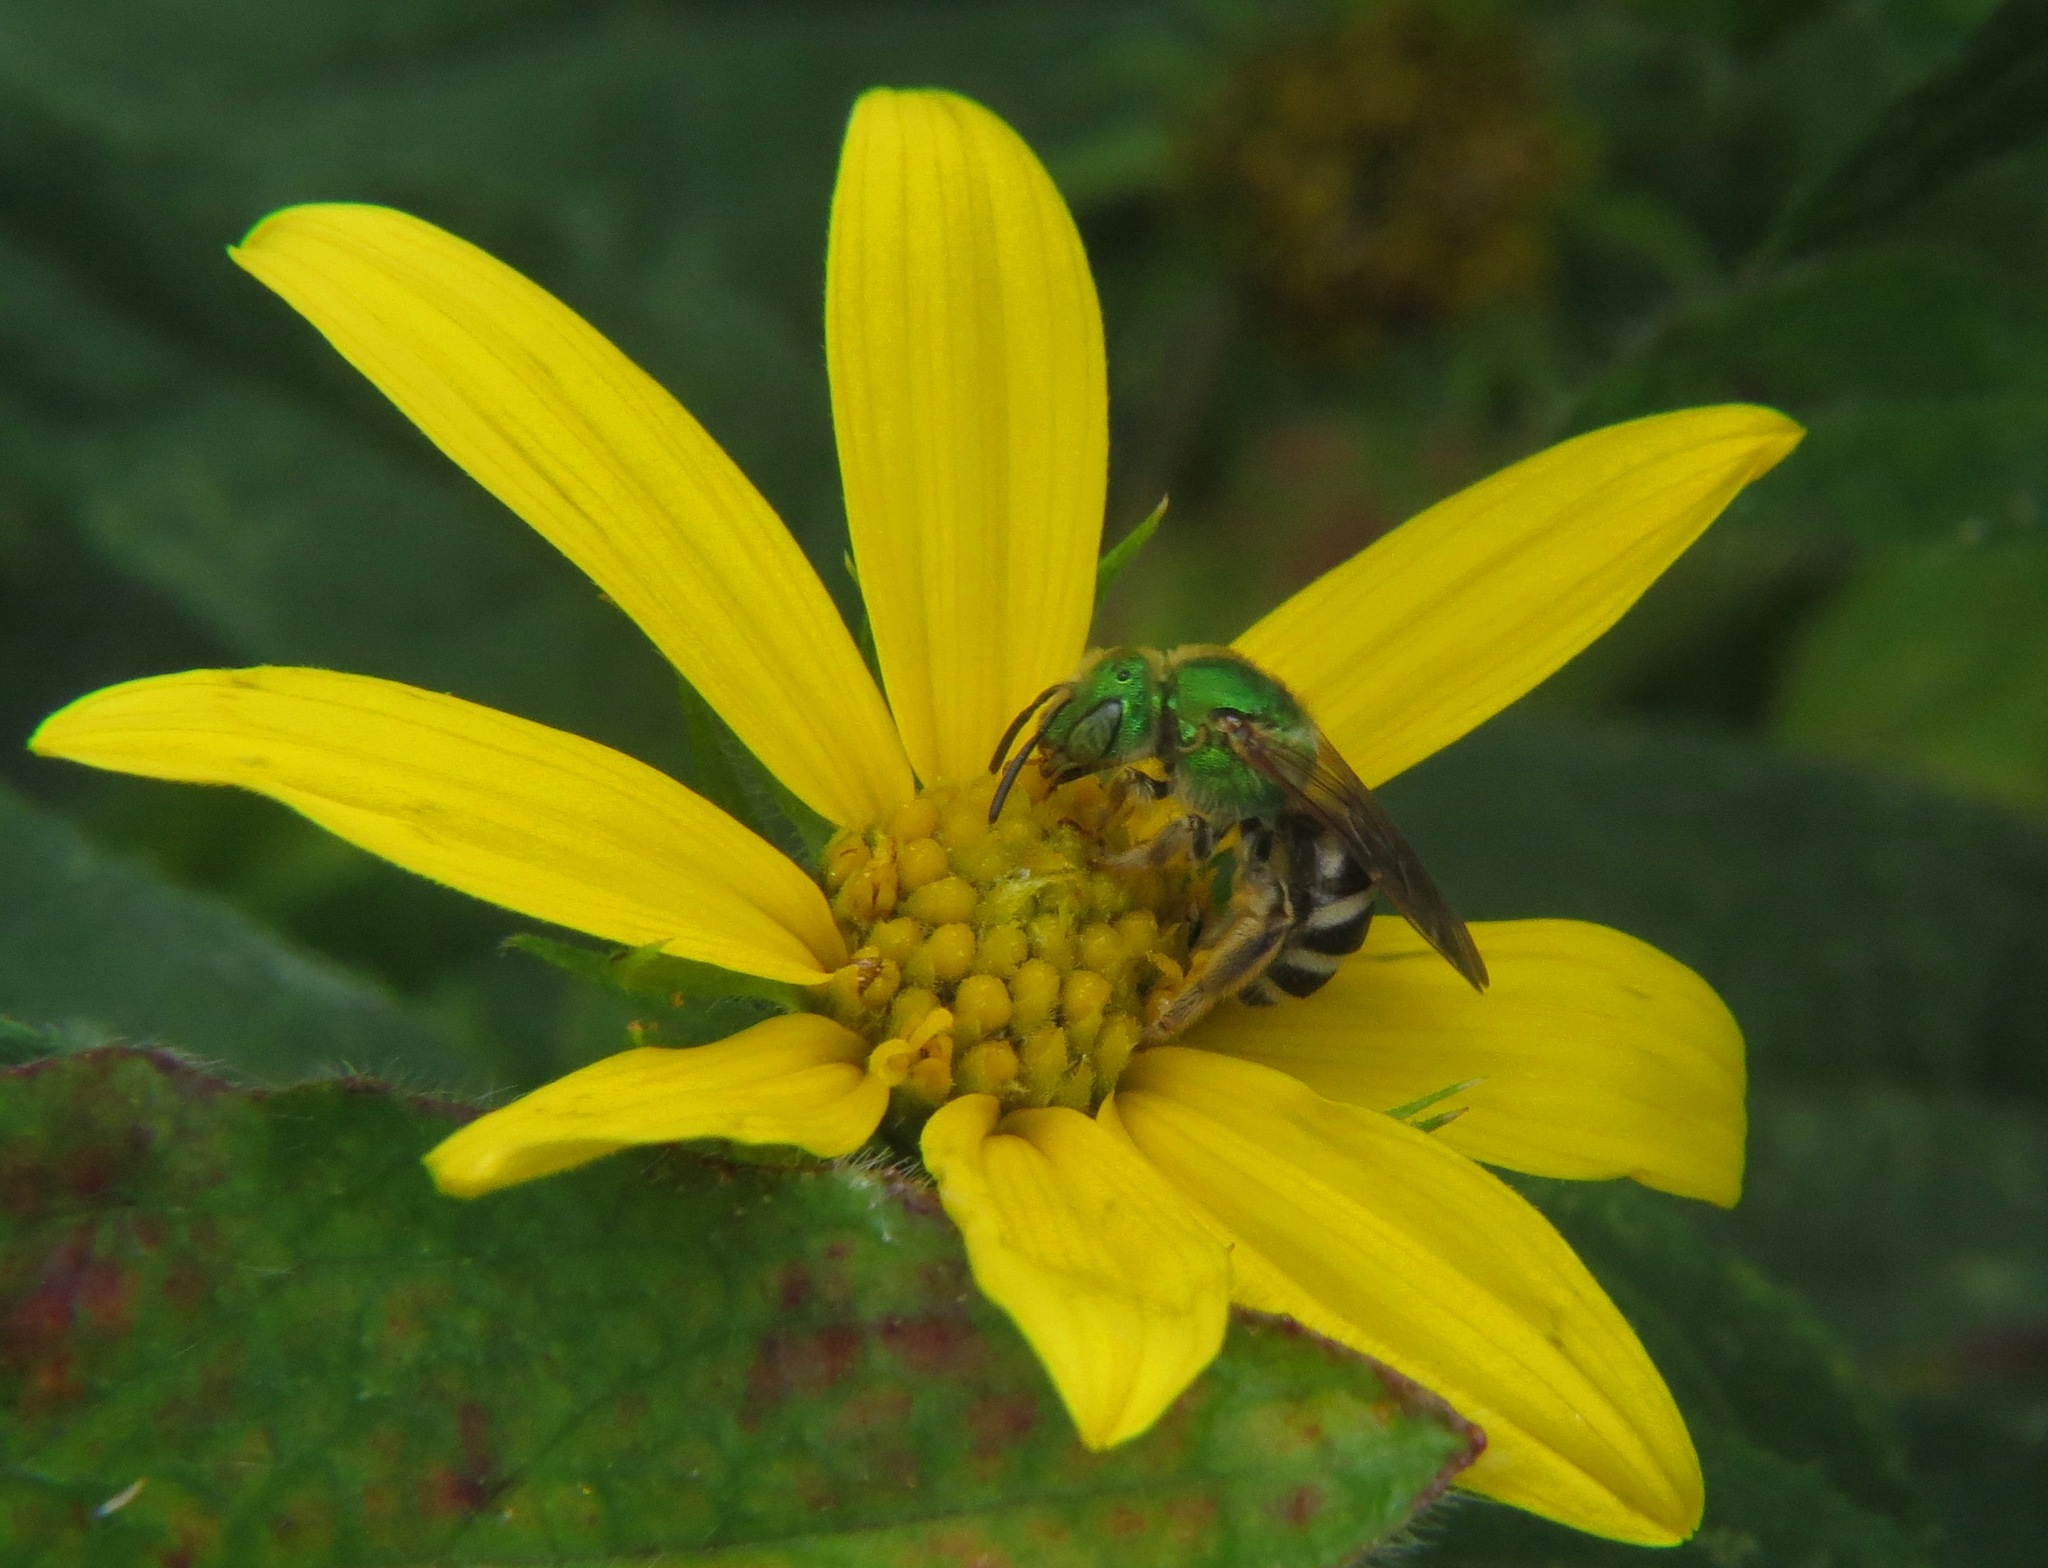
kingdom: Animalia
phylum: Arthropoda
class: Insecta
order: Hymenoptera
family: Halictidae
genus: Agapostemon
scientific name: Agapostemon virescens
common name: Bicolored striped sweat bee
